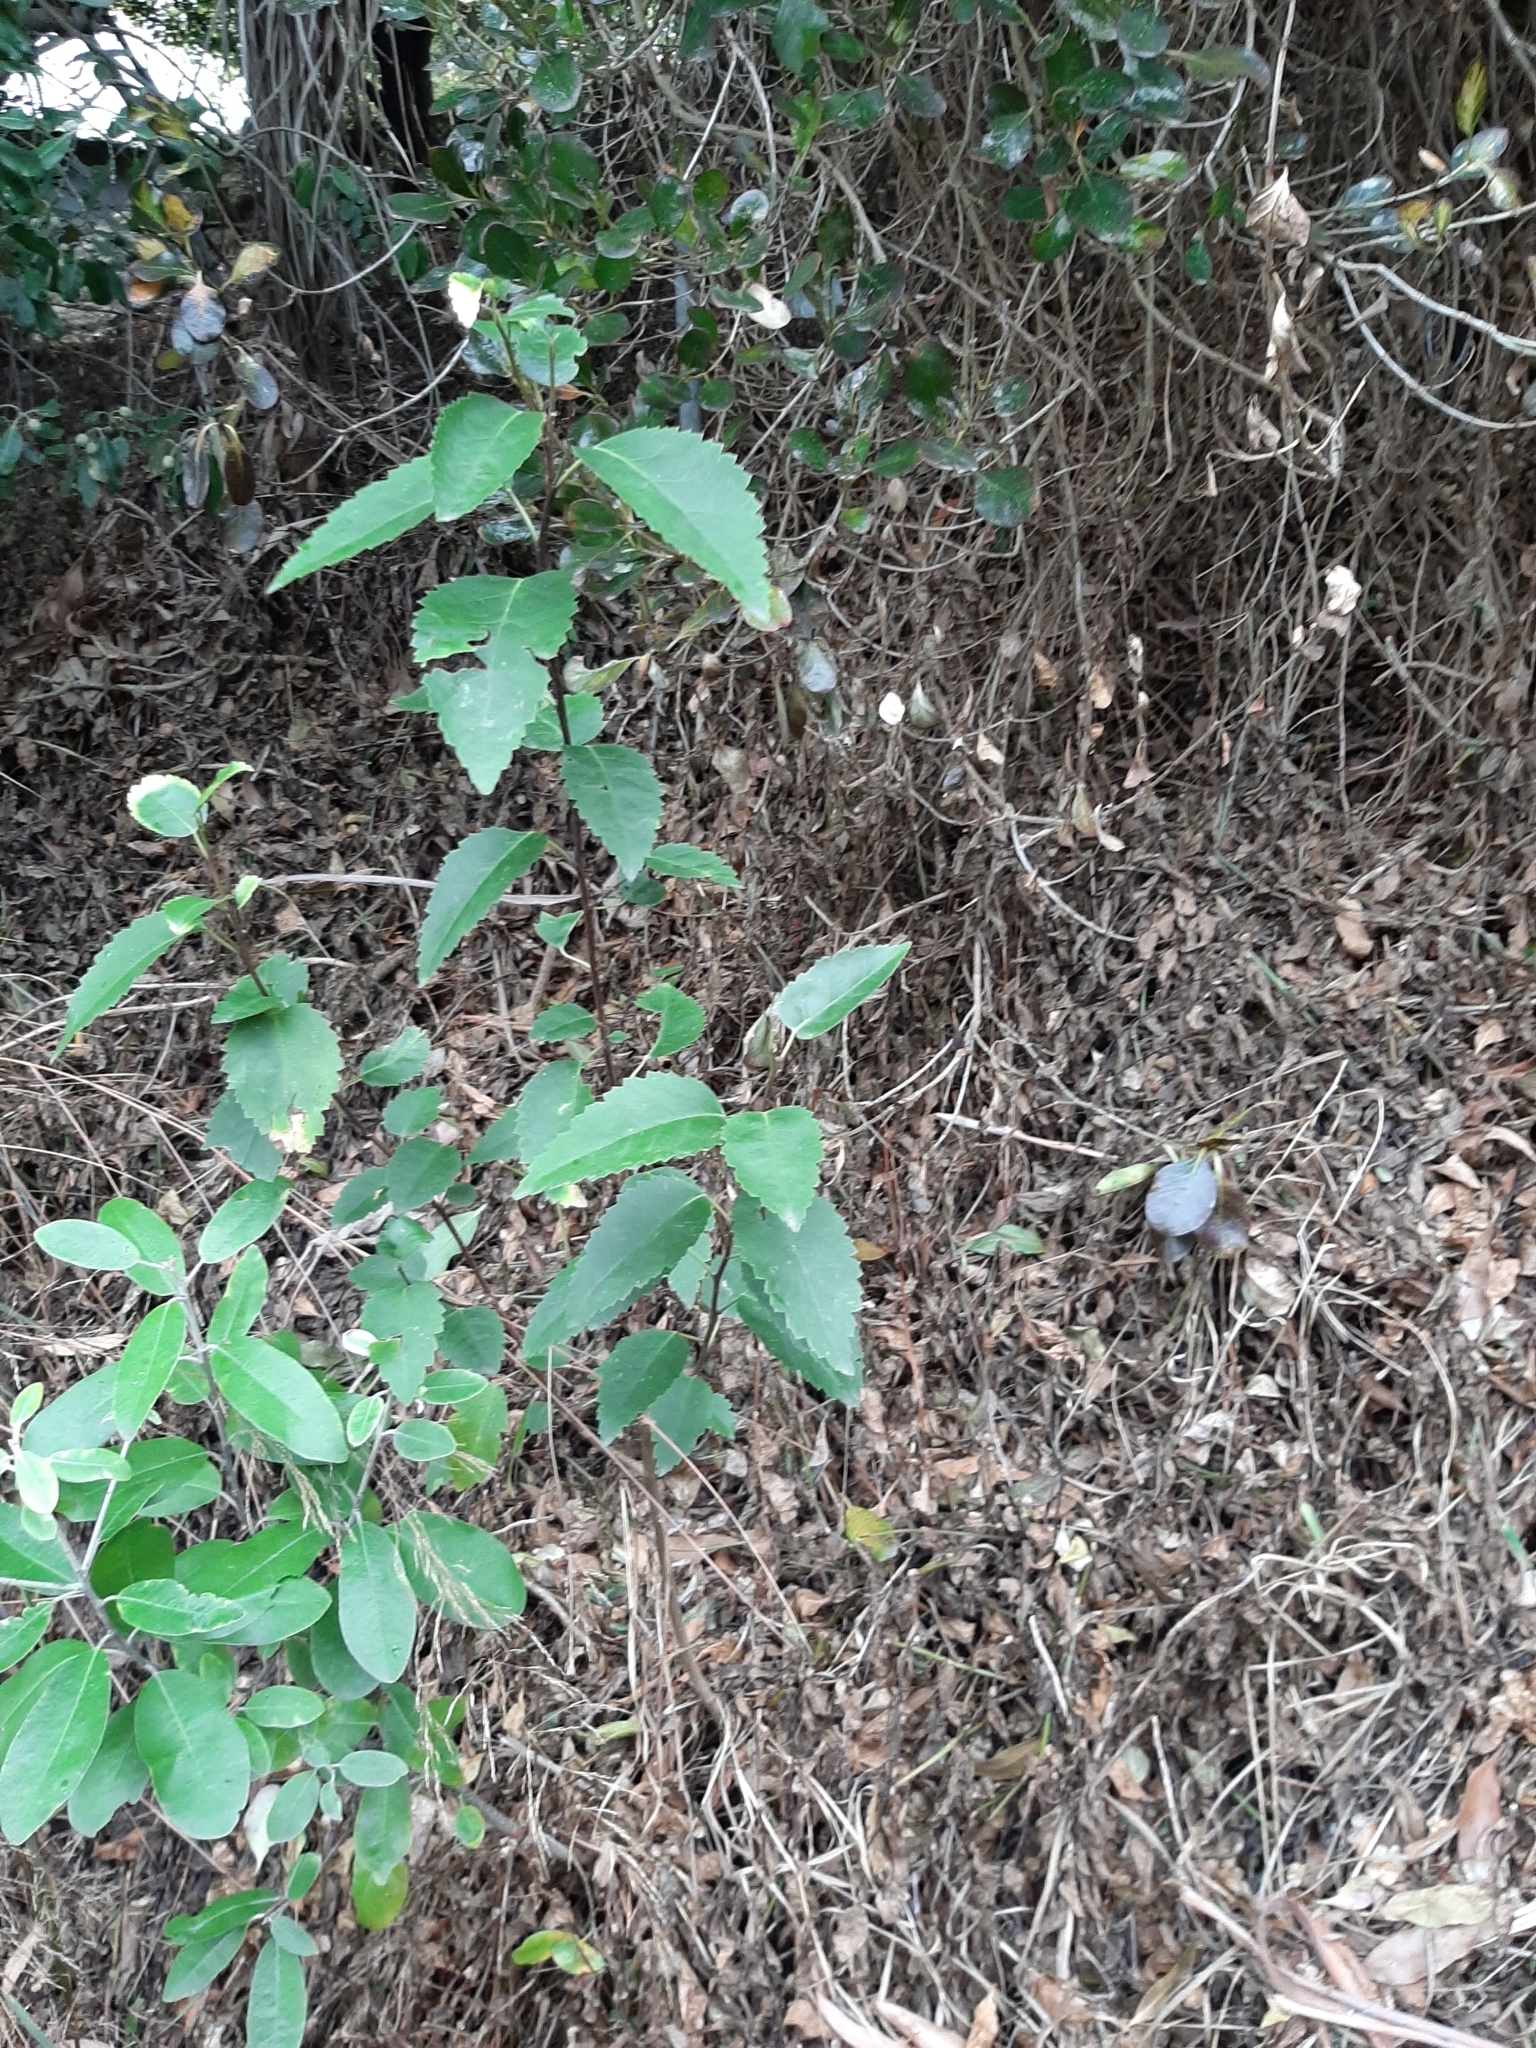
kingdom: Plantae
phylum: Tracheophyta
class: Magnoliopsida
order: Malvales
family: Malvaceae
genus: Hoheria
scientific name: Hoheria populnea
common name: Lacebark
